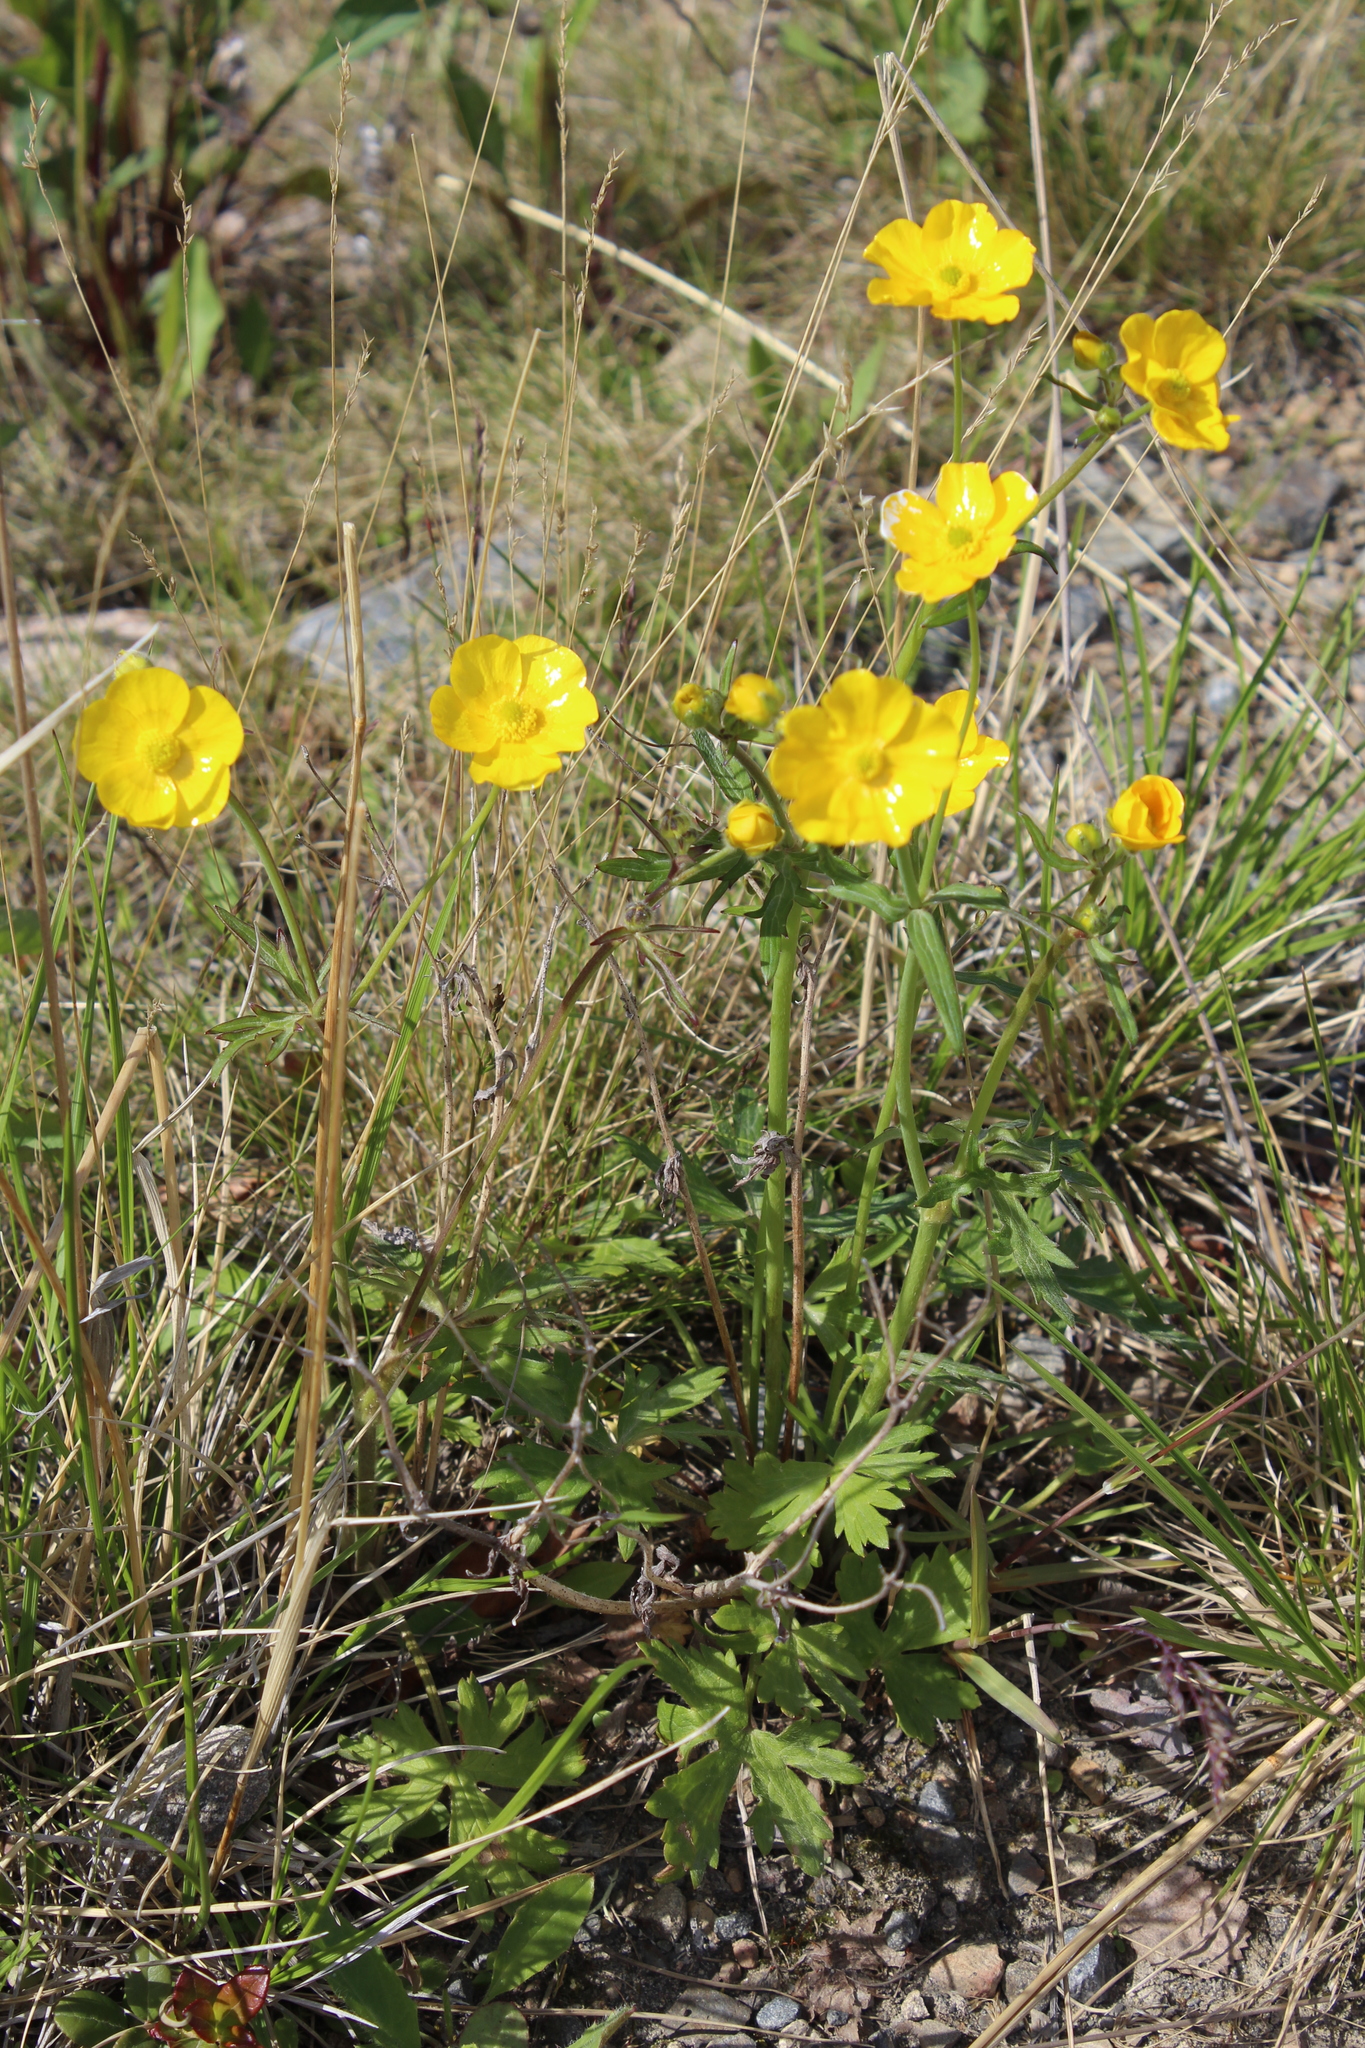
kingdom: Plantae
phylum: Tracheophyta
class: Magnoliopsida
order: Ranunculales
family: Ranunculaceae
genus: Ranunculus
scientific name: Ranunculus propinquus
